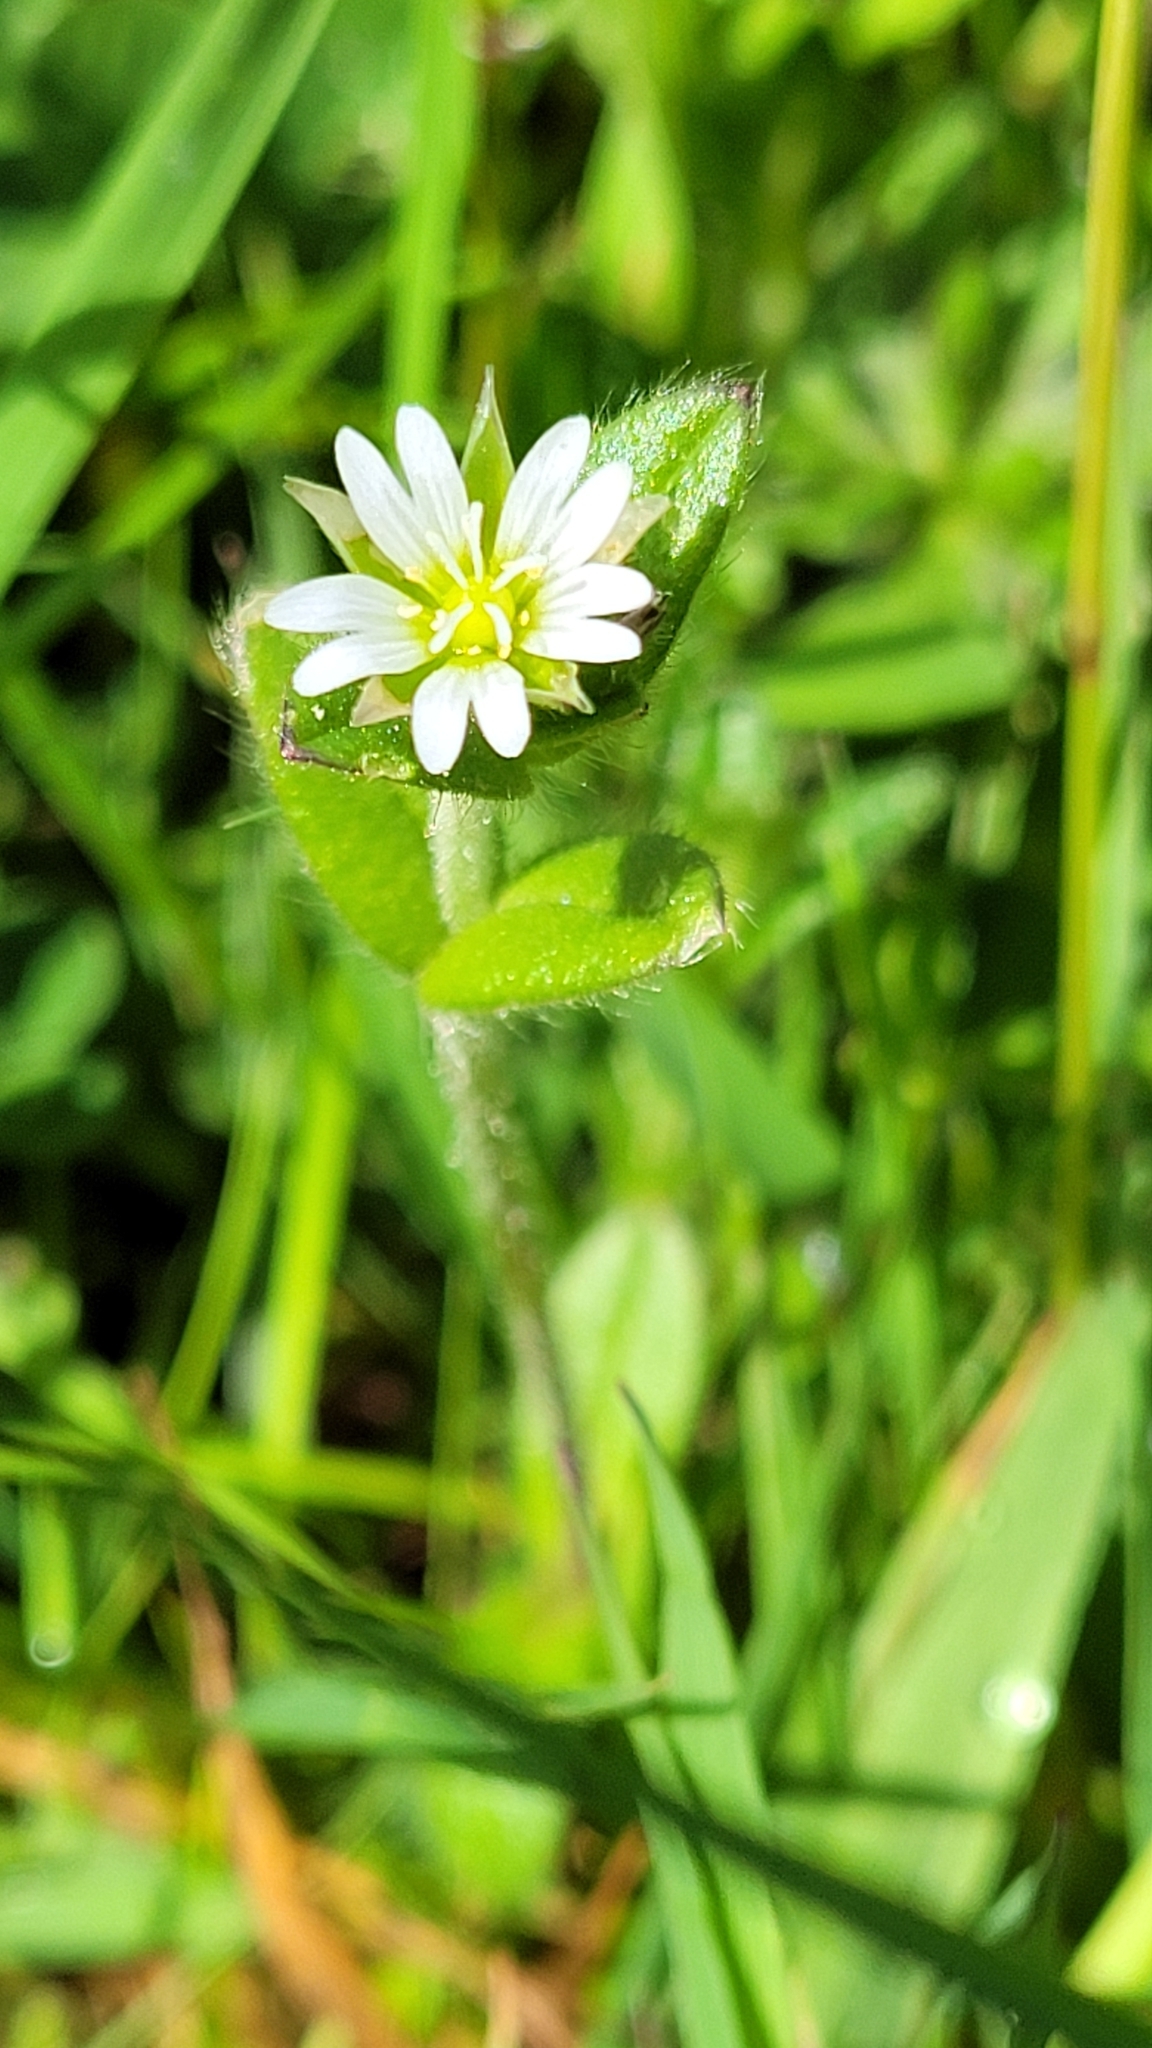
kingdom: Plantae
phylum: Tracheophyta
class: Magnoliopsida
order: Caryophyllales
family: Caryophyllaceae
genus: Cerastium
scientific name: Cerastium fontanum
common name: Common mouse-ear
